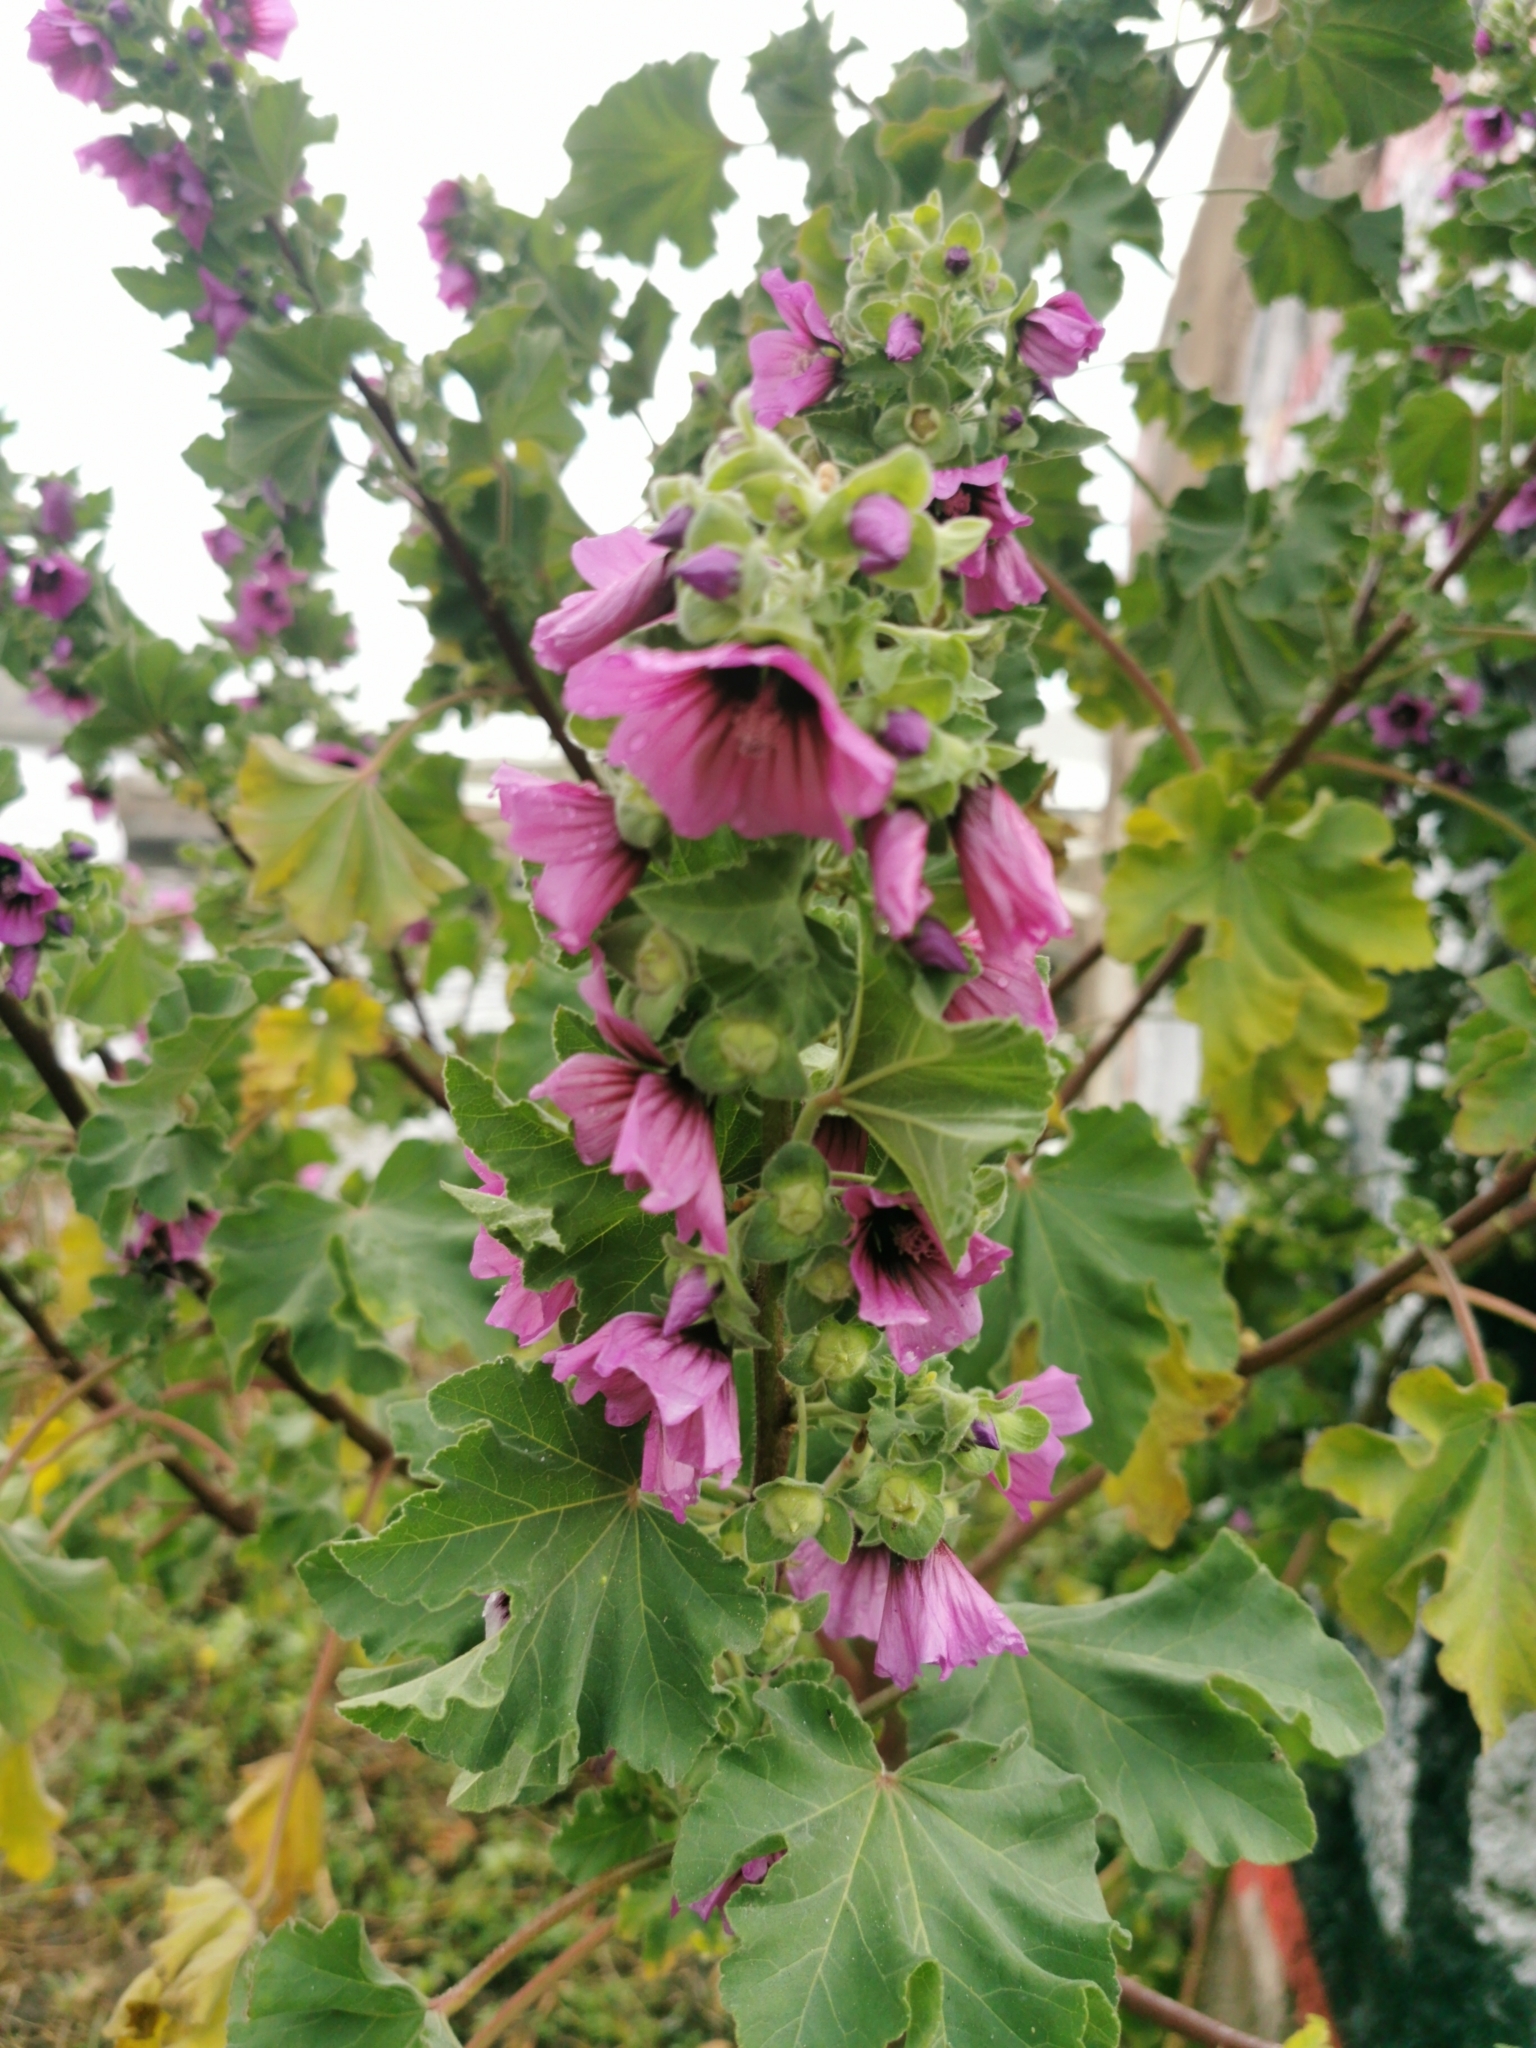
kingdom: Plantae
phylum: Tracheophyta
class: Magnoliopsida
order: Malvales
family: Malvaceae
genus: Malva
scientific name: Malva arborea
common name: Tree mallow
